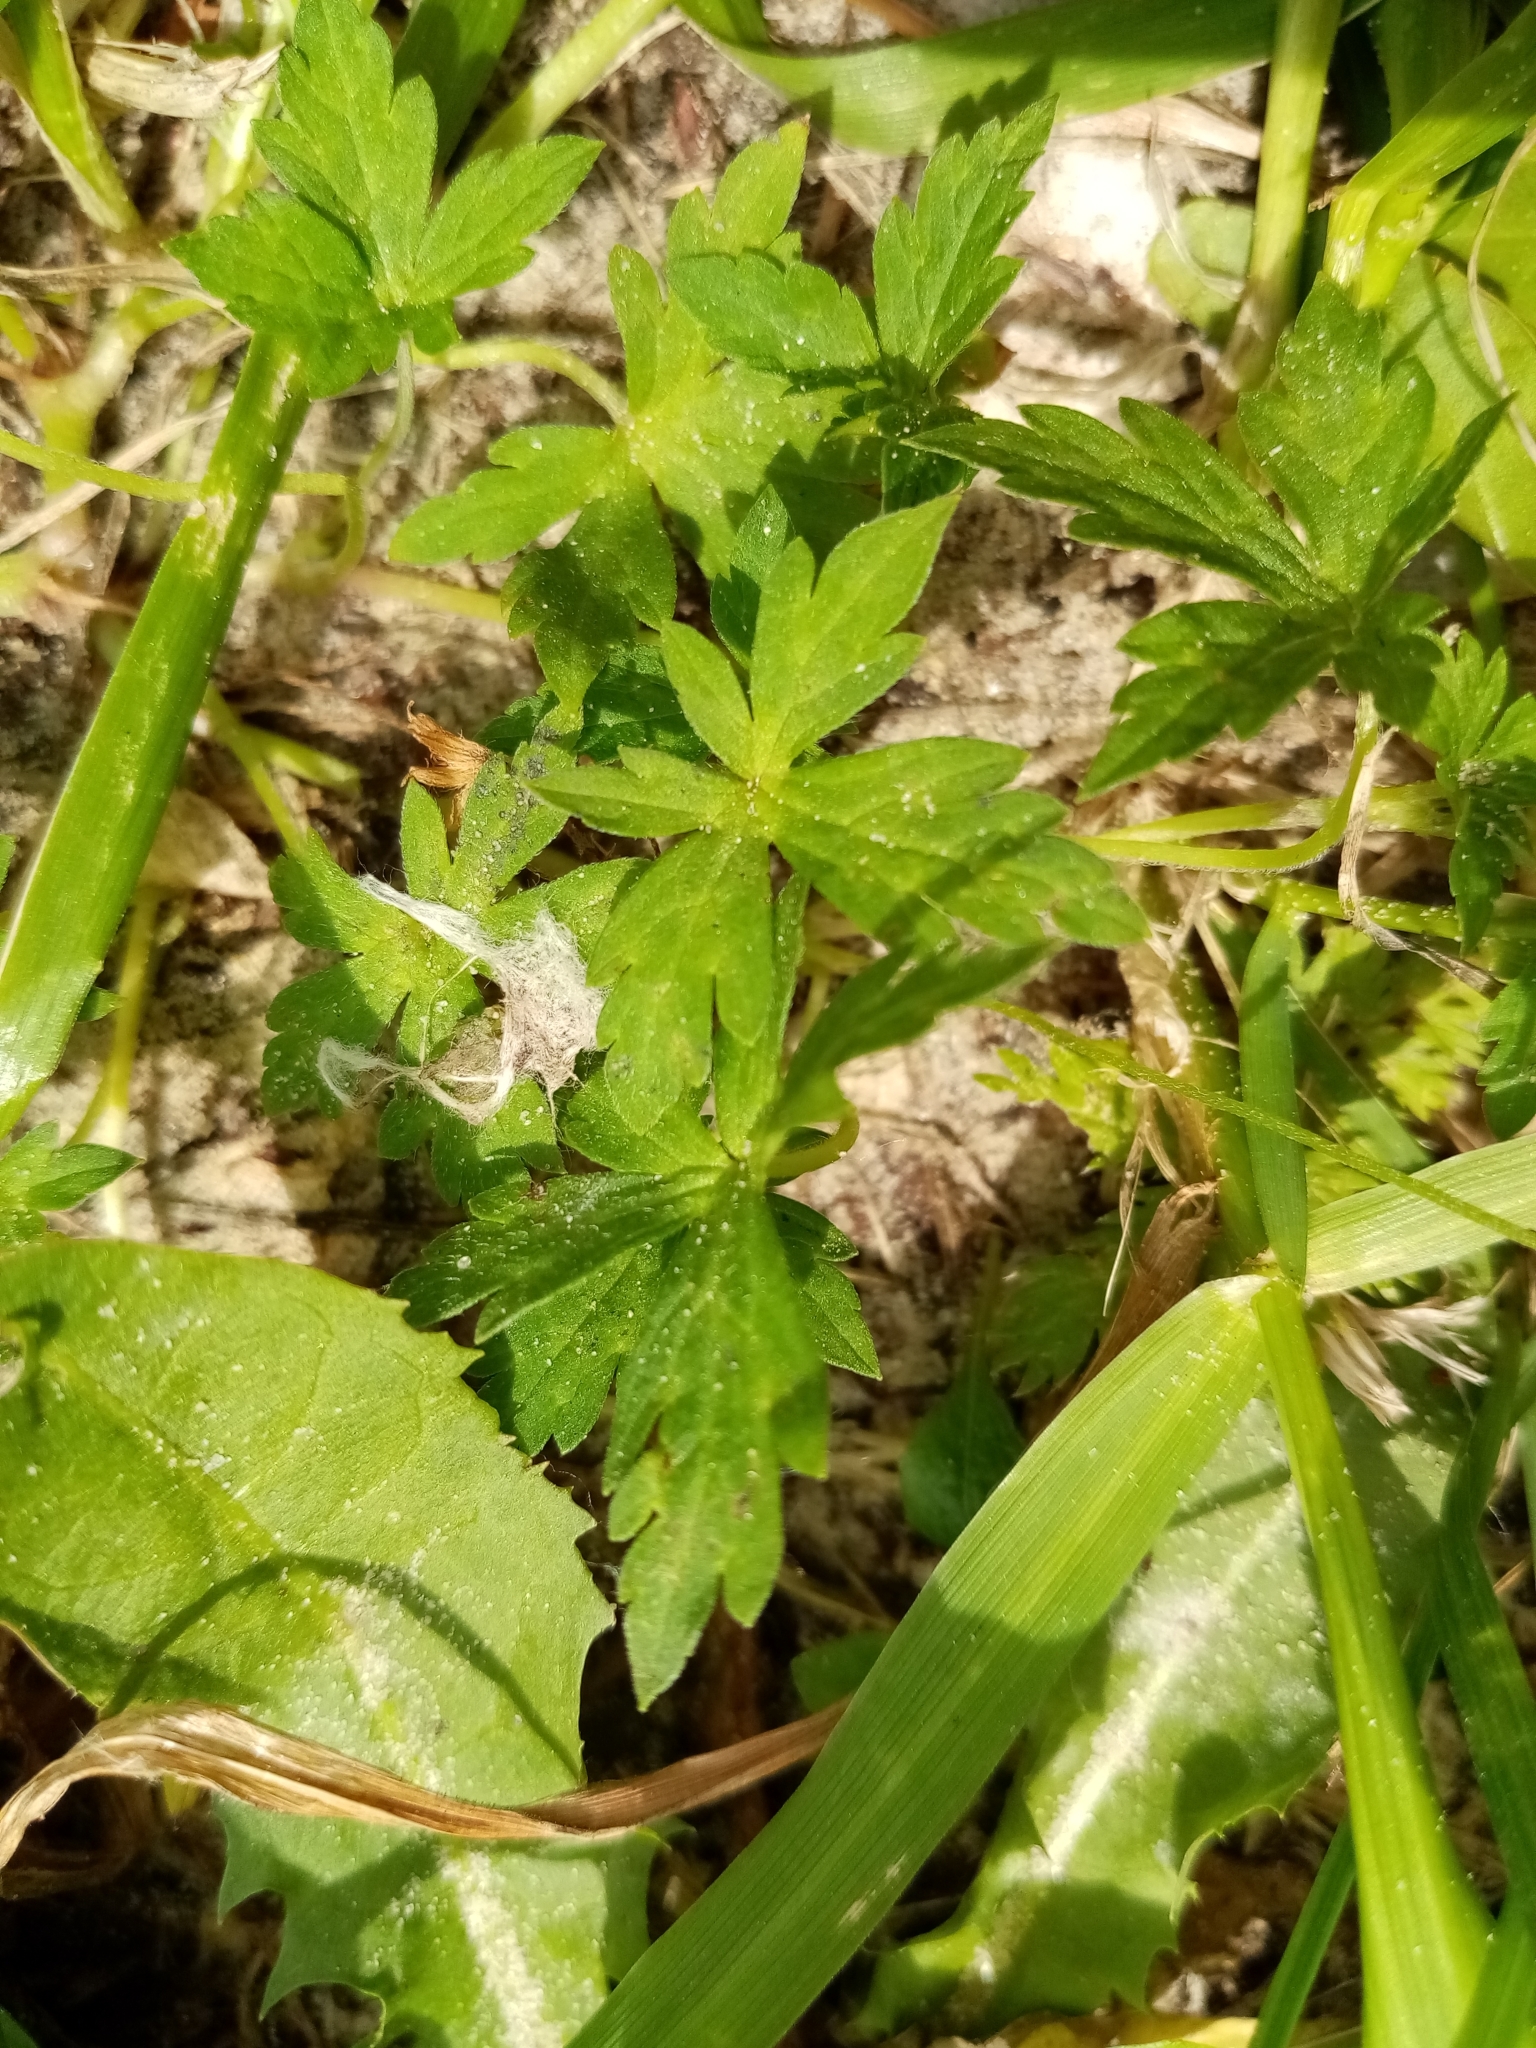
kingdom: Plantae
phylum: Tracheophyta
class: Magnoliopsida
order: Geraniales
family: Geraniaceae
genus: Geranium
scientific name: Geranium sibiricum
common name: Siberian crane's-bill
